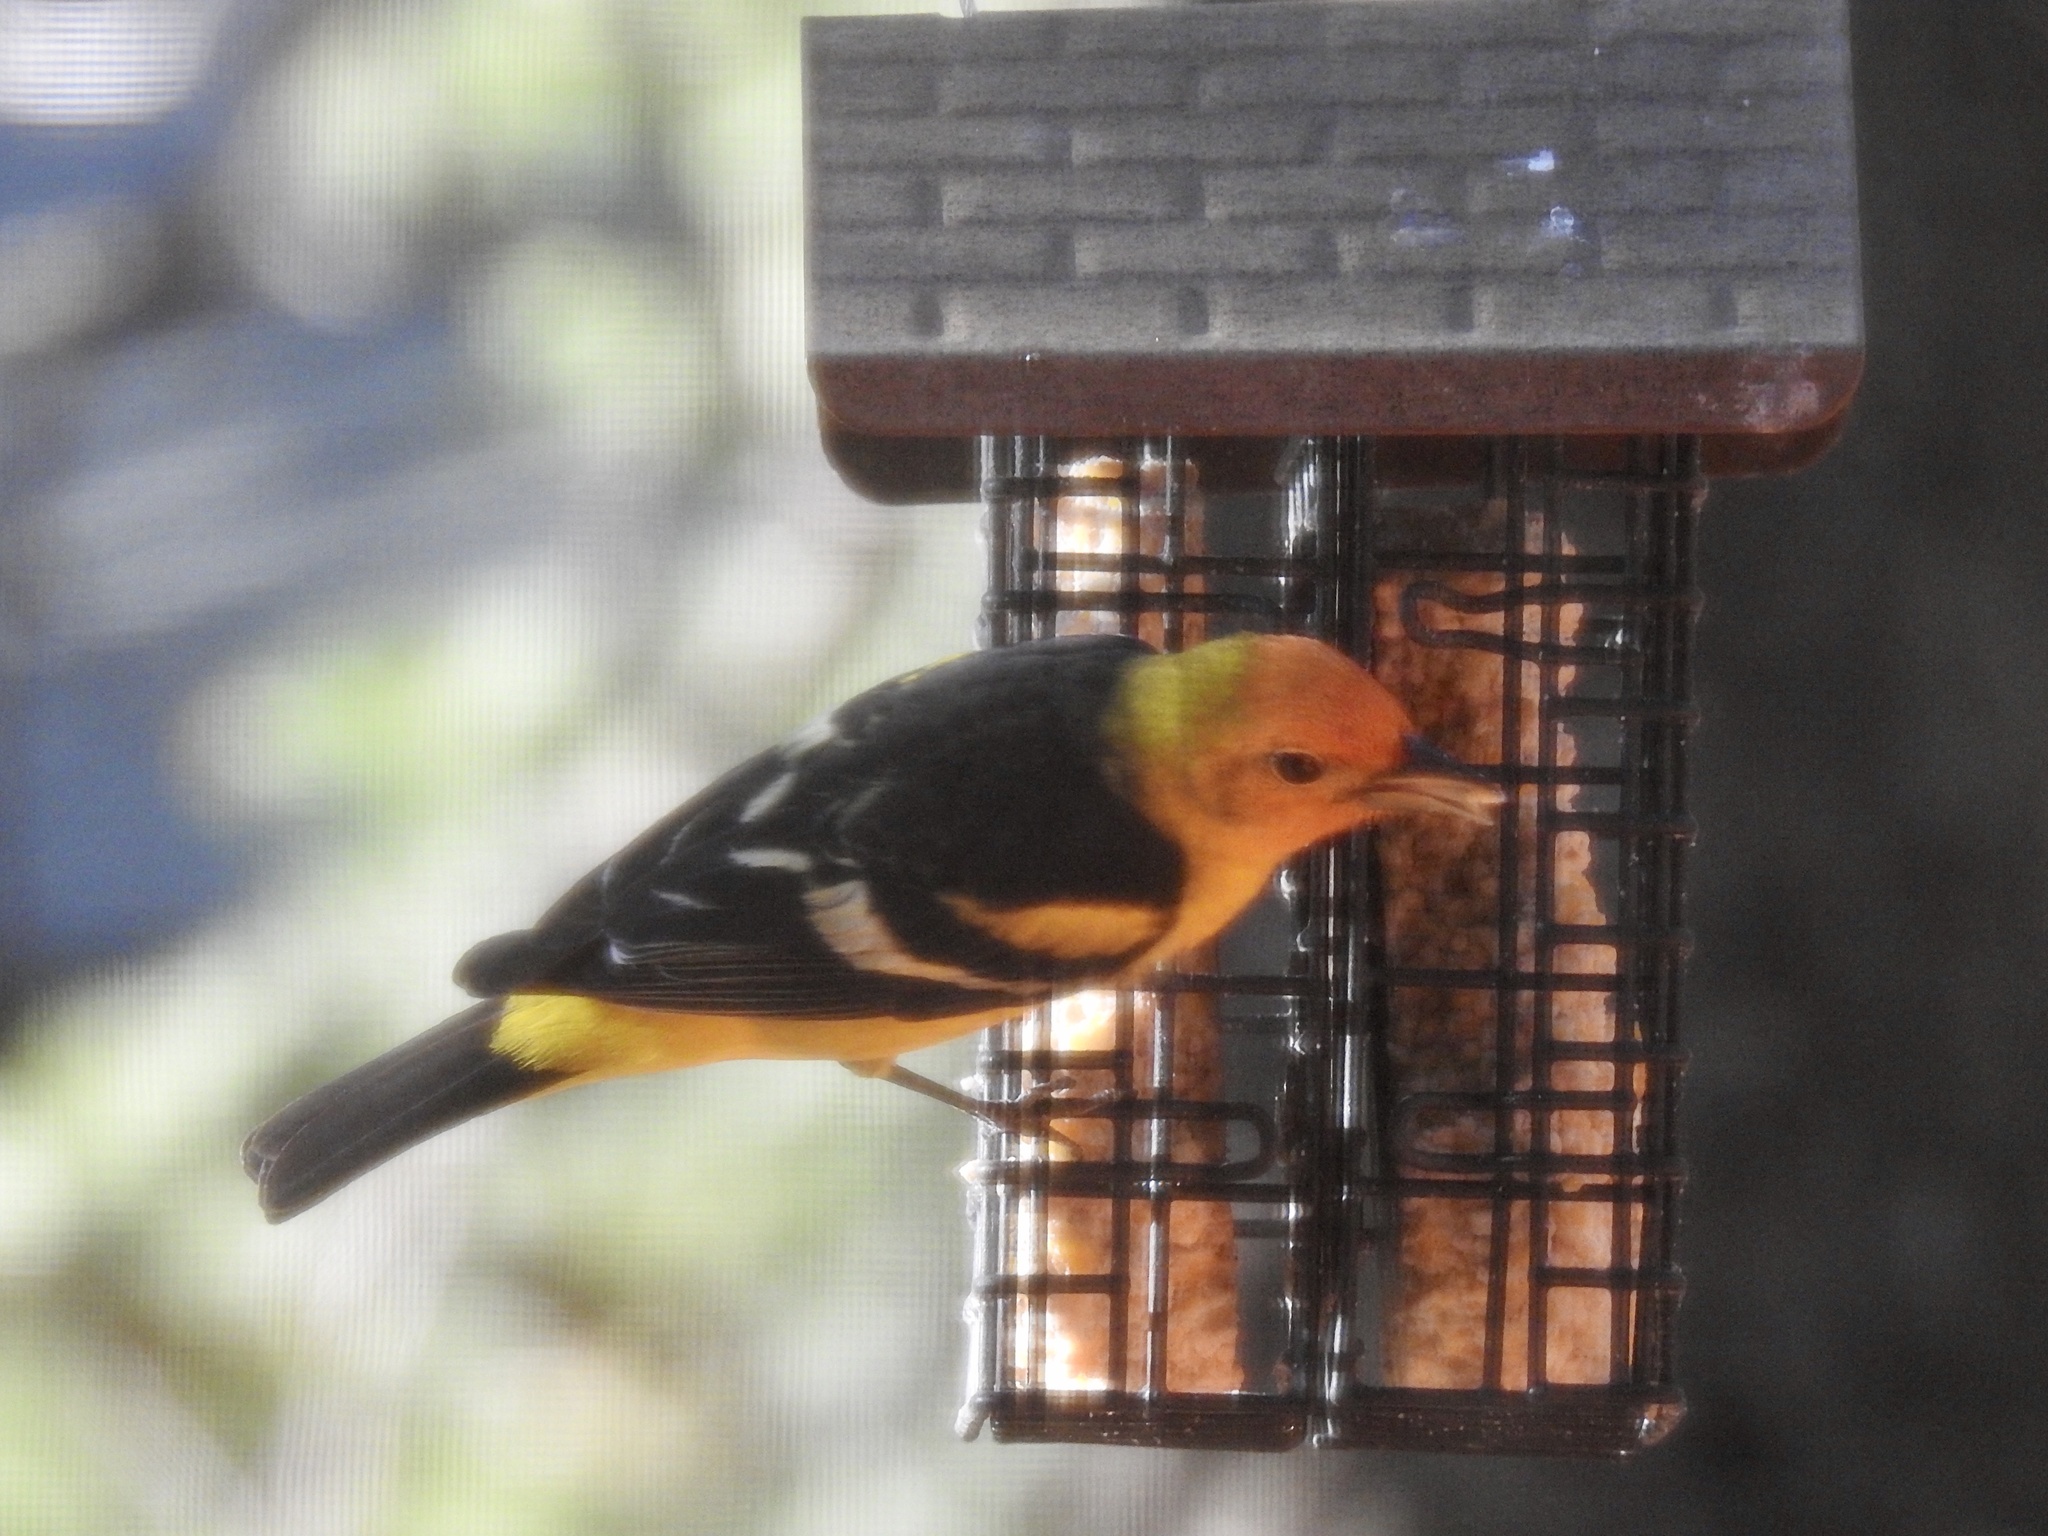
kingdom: Animalia
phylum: Chordata
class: Aves
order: Passeriformes
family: Cardinalidae
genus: Piranga
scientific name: Piranga ludoviciana
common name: Western tanager
